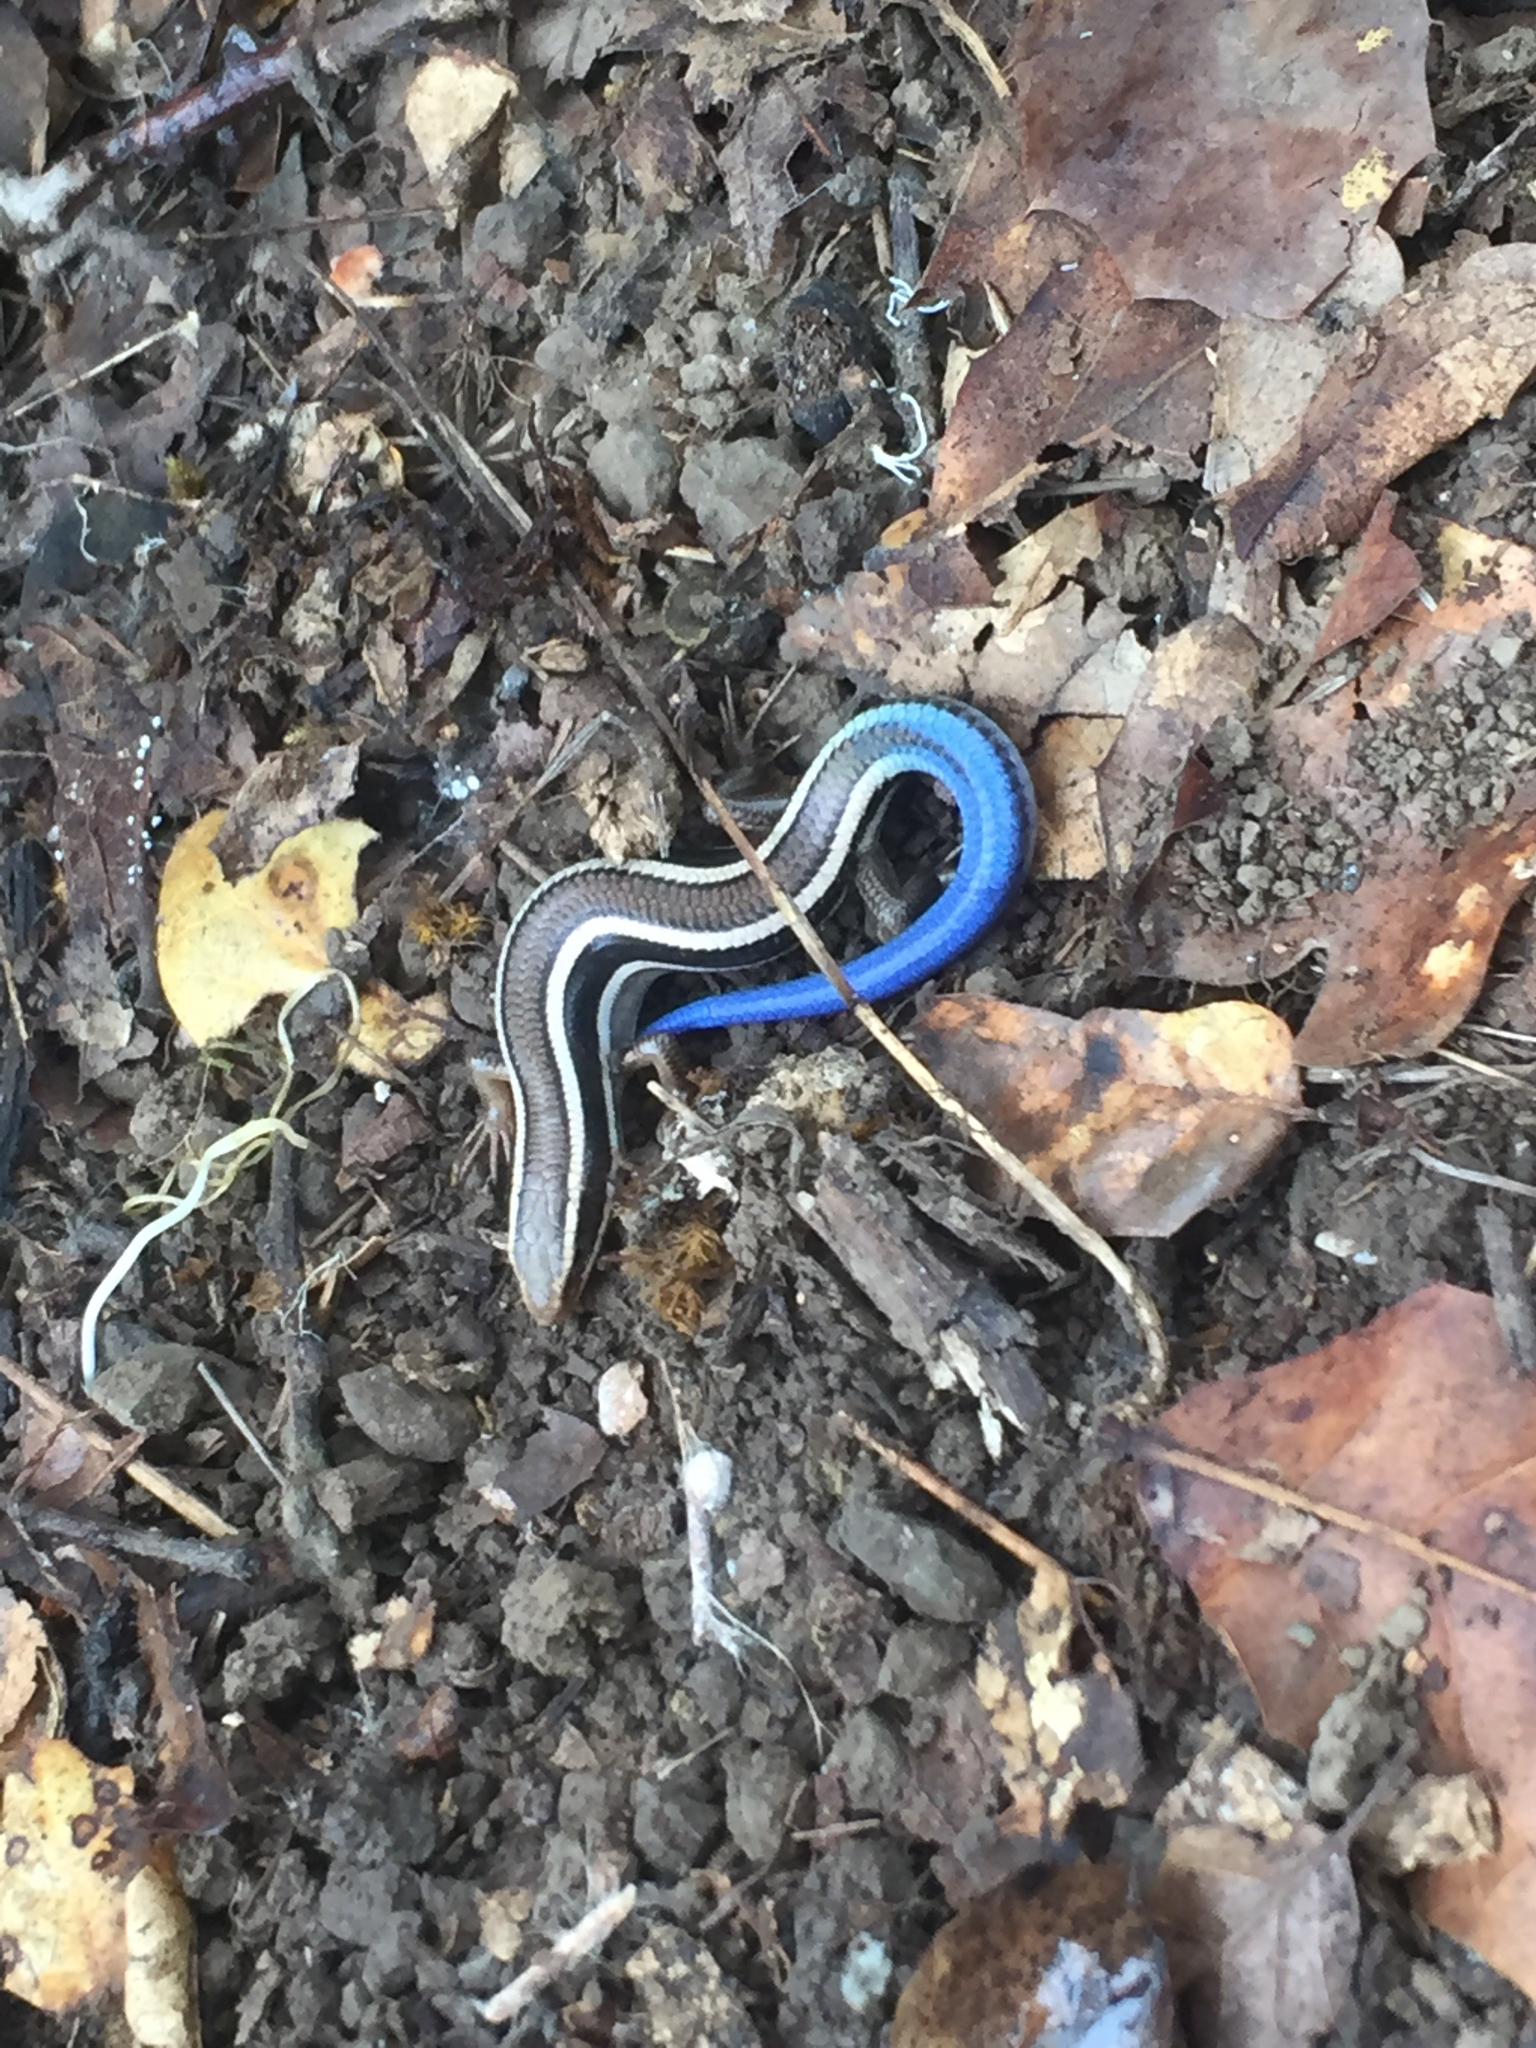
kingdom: Animalia
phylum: Chordata
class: Squamata
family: Scincidae
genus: Plestiodon
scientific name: Plestiodon skiltonianus
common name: Coronado island skink [interparietalis]
